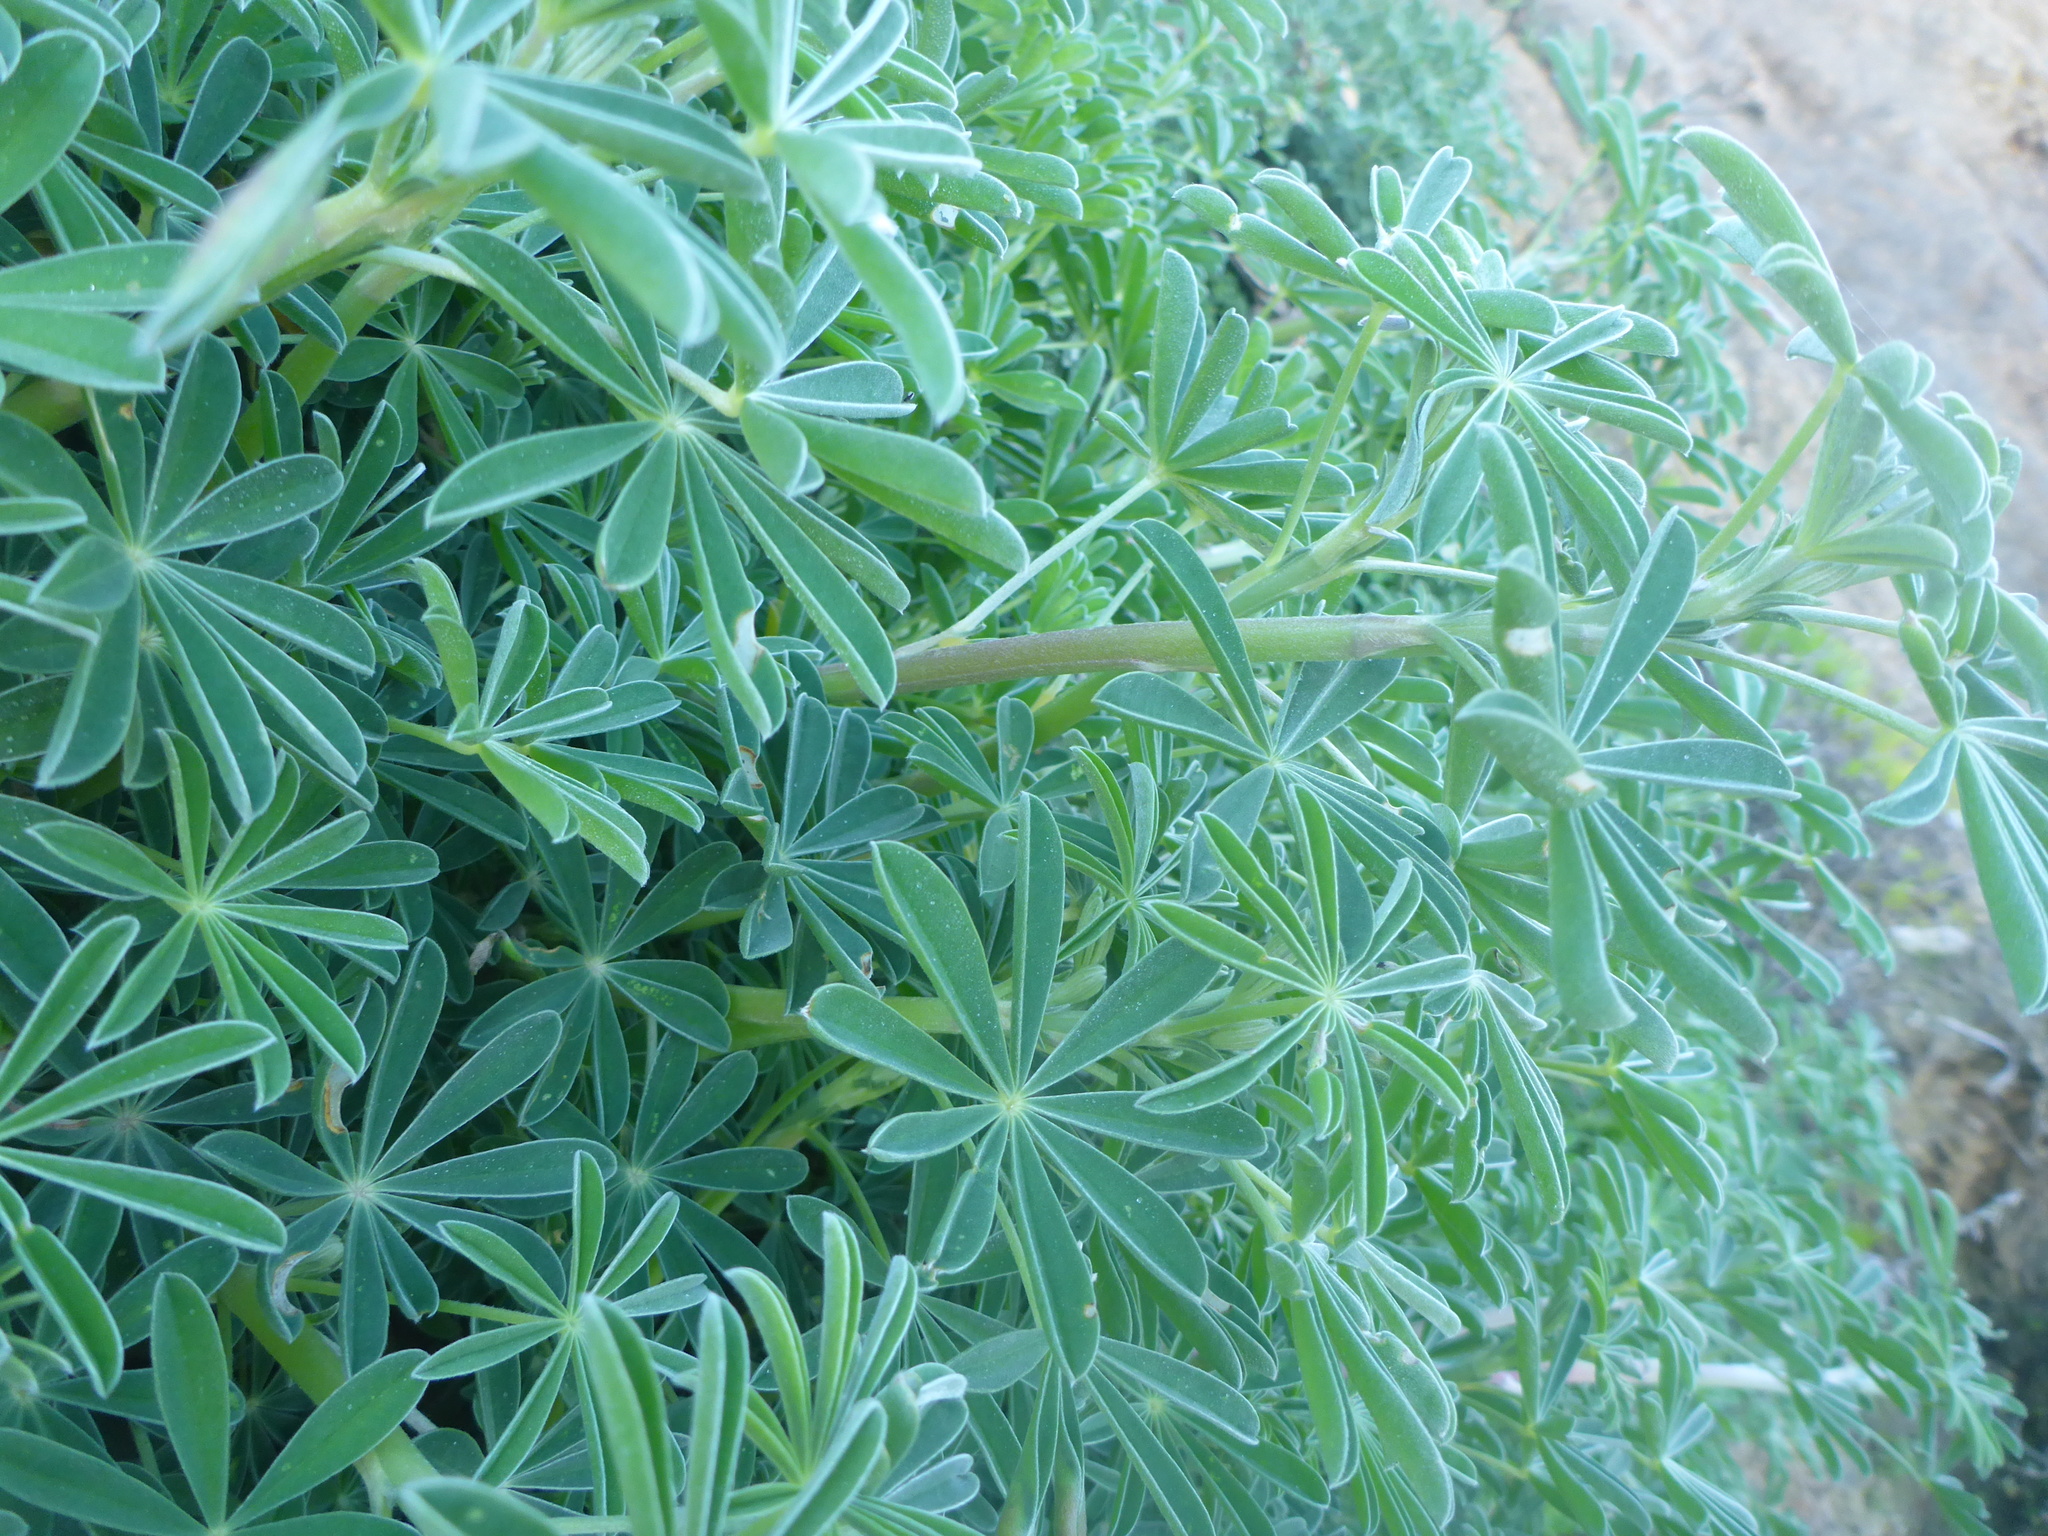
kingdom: Plantae
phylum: Tracheophyta
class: Magnoliopsida
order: Fabales
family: Fabaceae
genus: Lupinus
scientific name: Lupinus arboreus
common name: Yellow bush lupine
